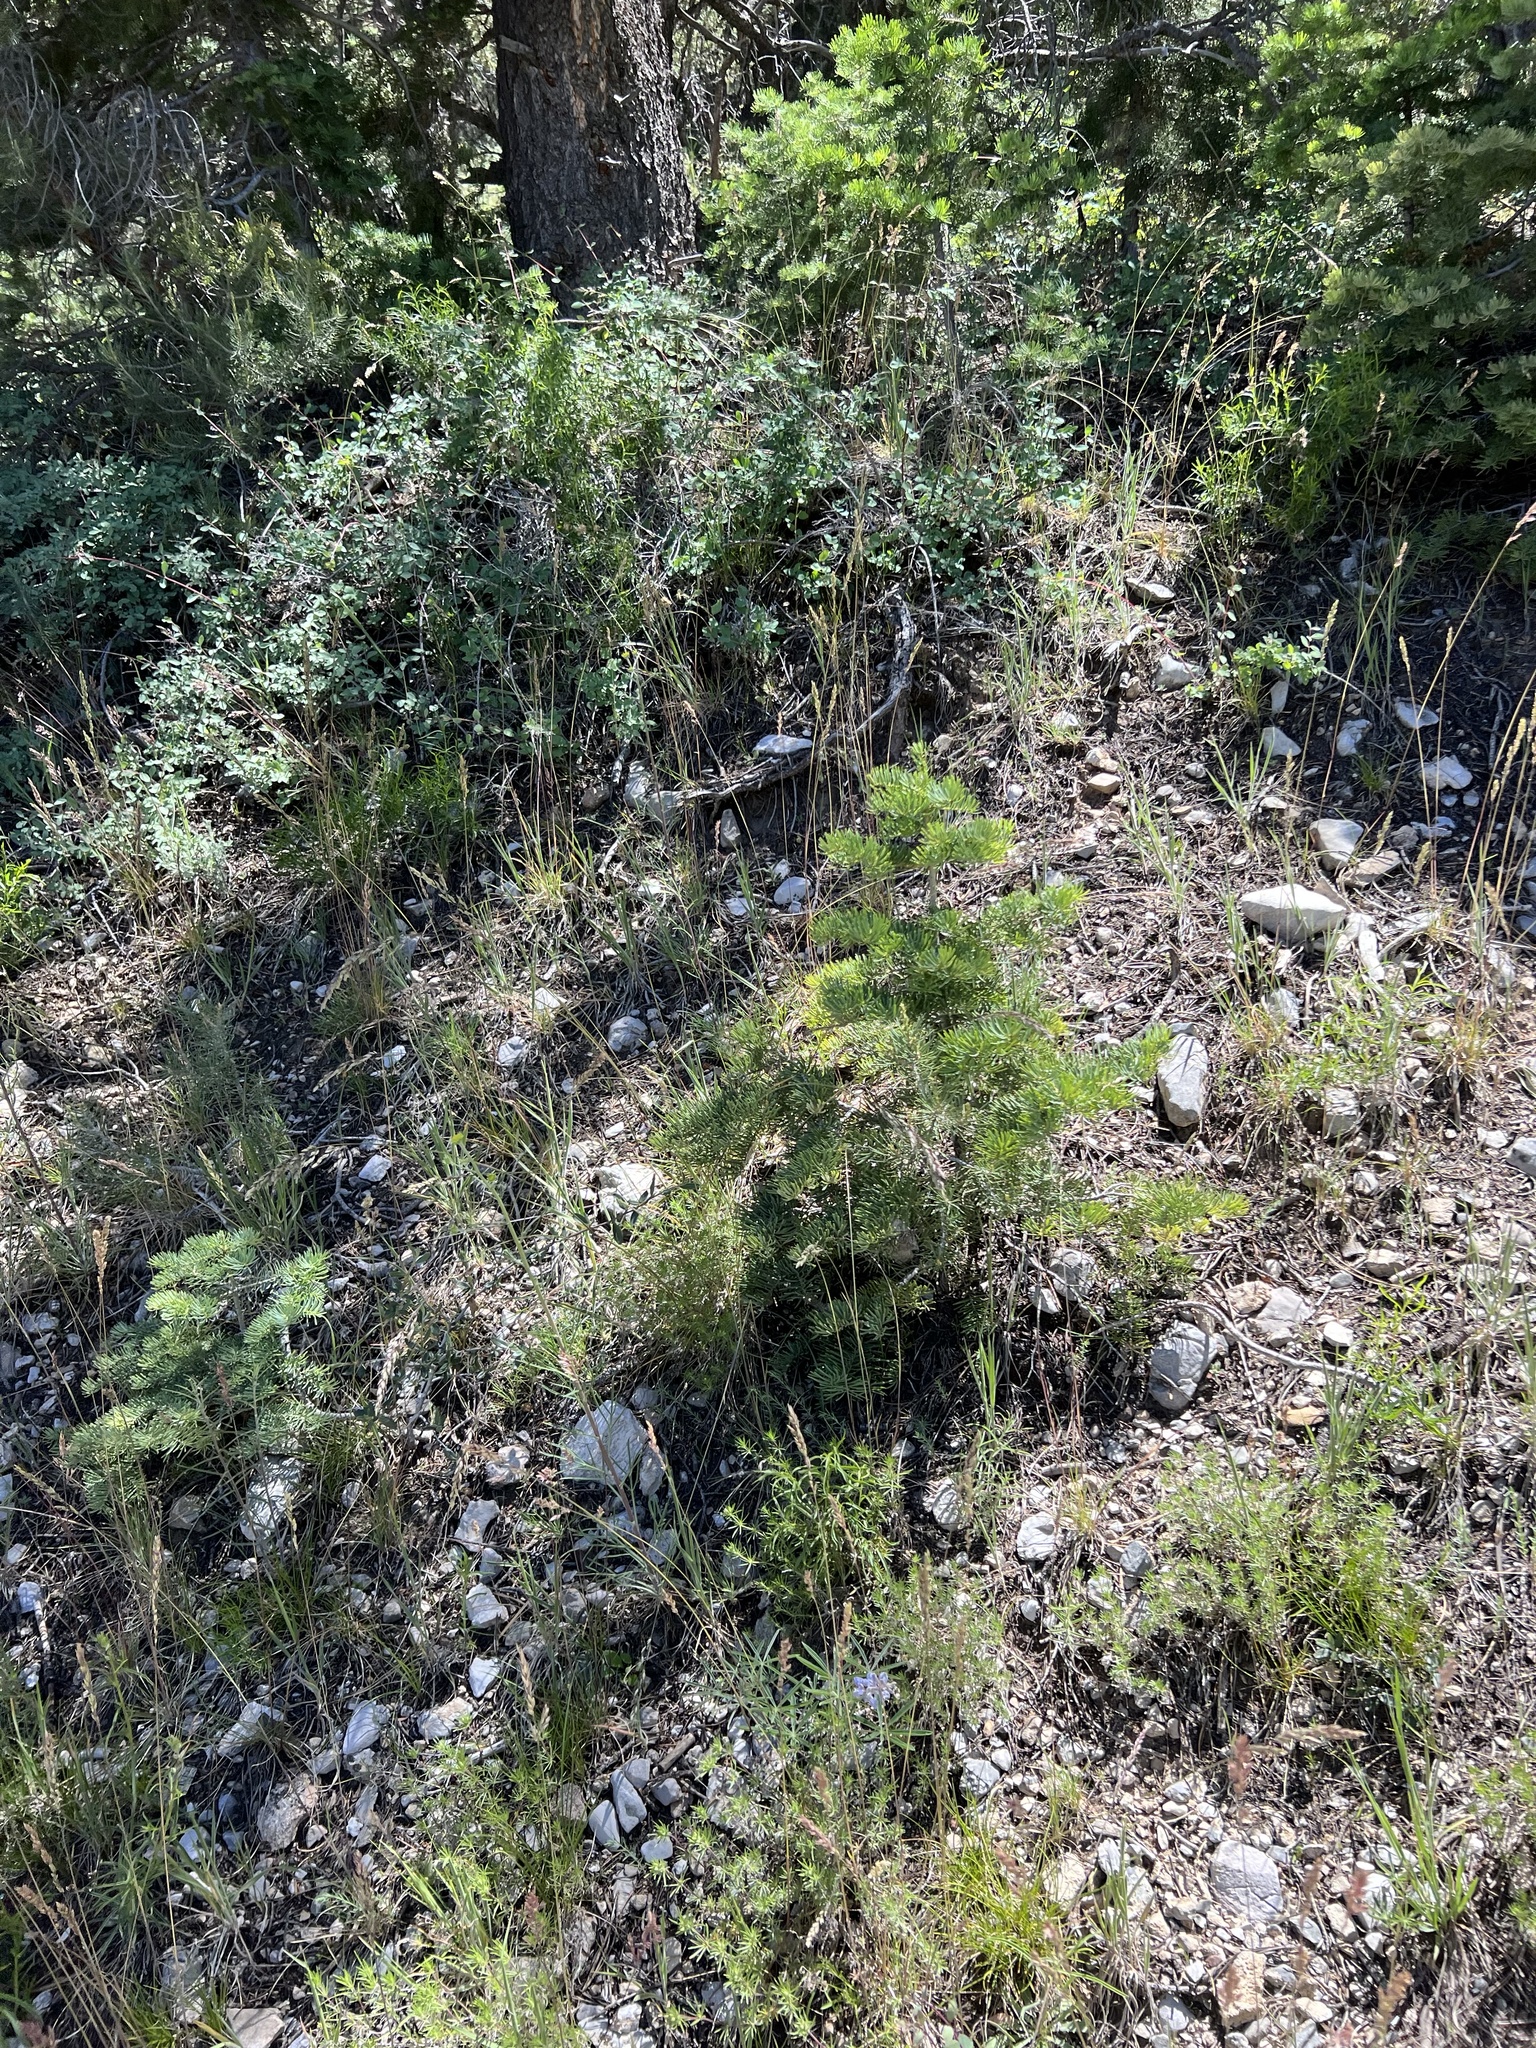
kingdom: Plantae
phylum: Tracheophyta
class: Pinopsida
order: Pinales
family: Pinaceae
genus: Abies
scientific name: Abies concolor
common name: Colorado fir
